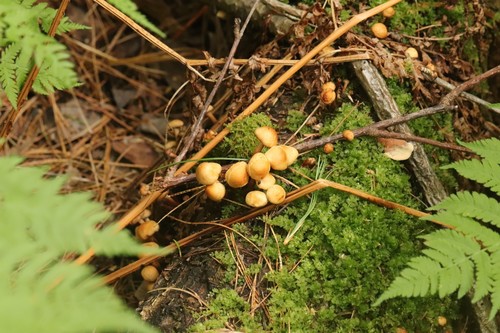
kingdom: Fungi
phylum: Basidiomycota
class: Agaricomycetes
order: Agaricales
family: Strophariaceae
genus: Kuehneromyces
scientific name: Kuehneromyces mutabilis
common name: Sheathed woodtuft
